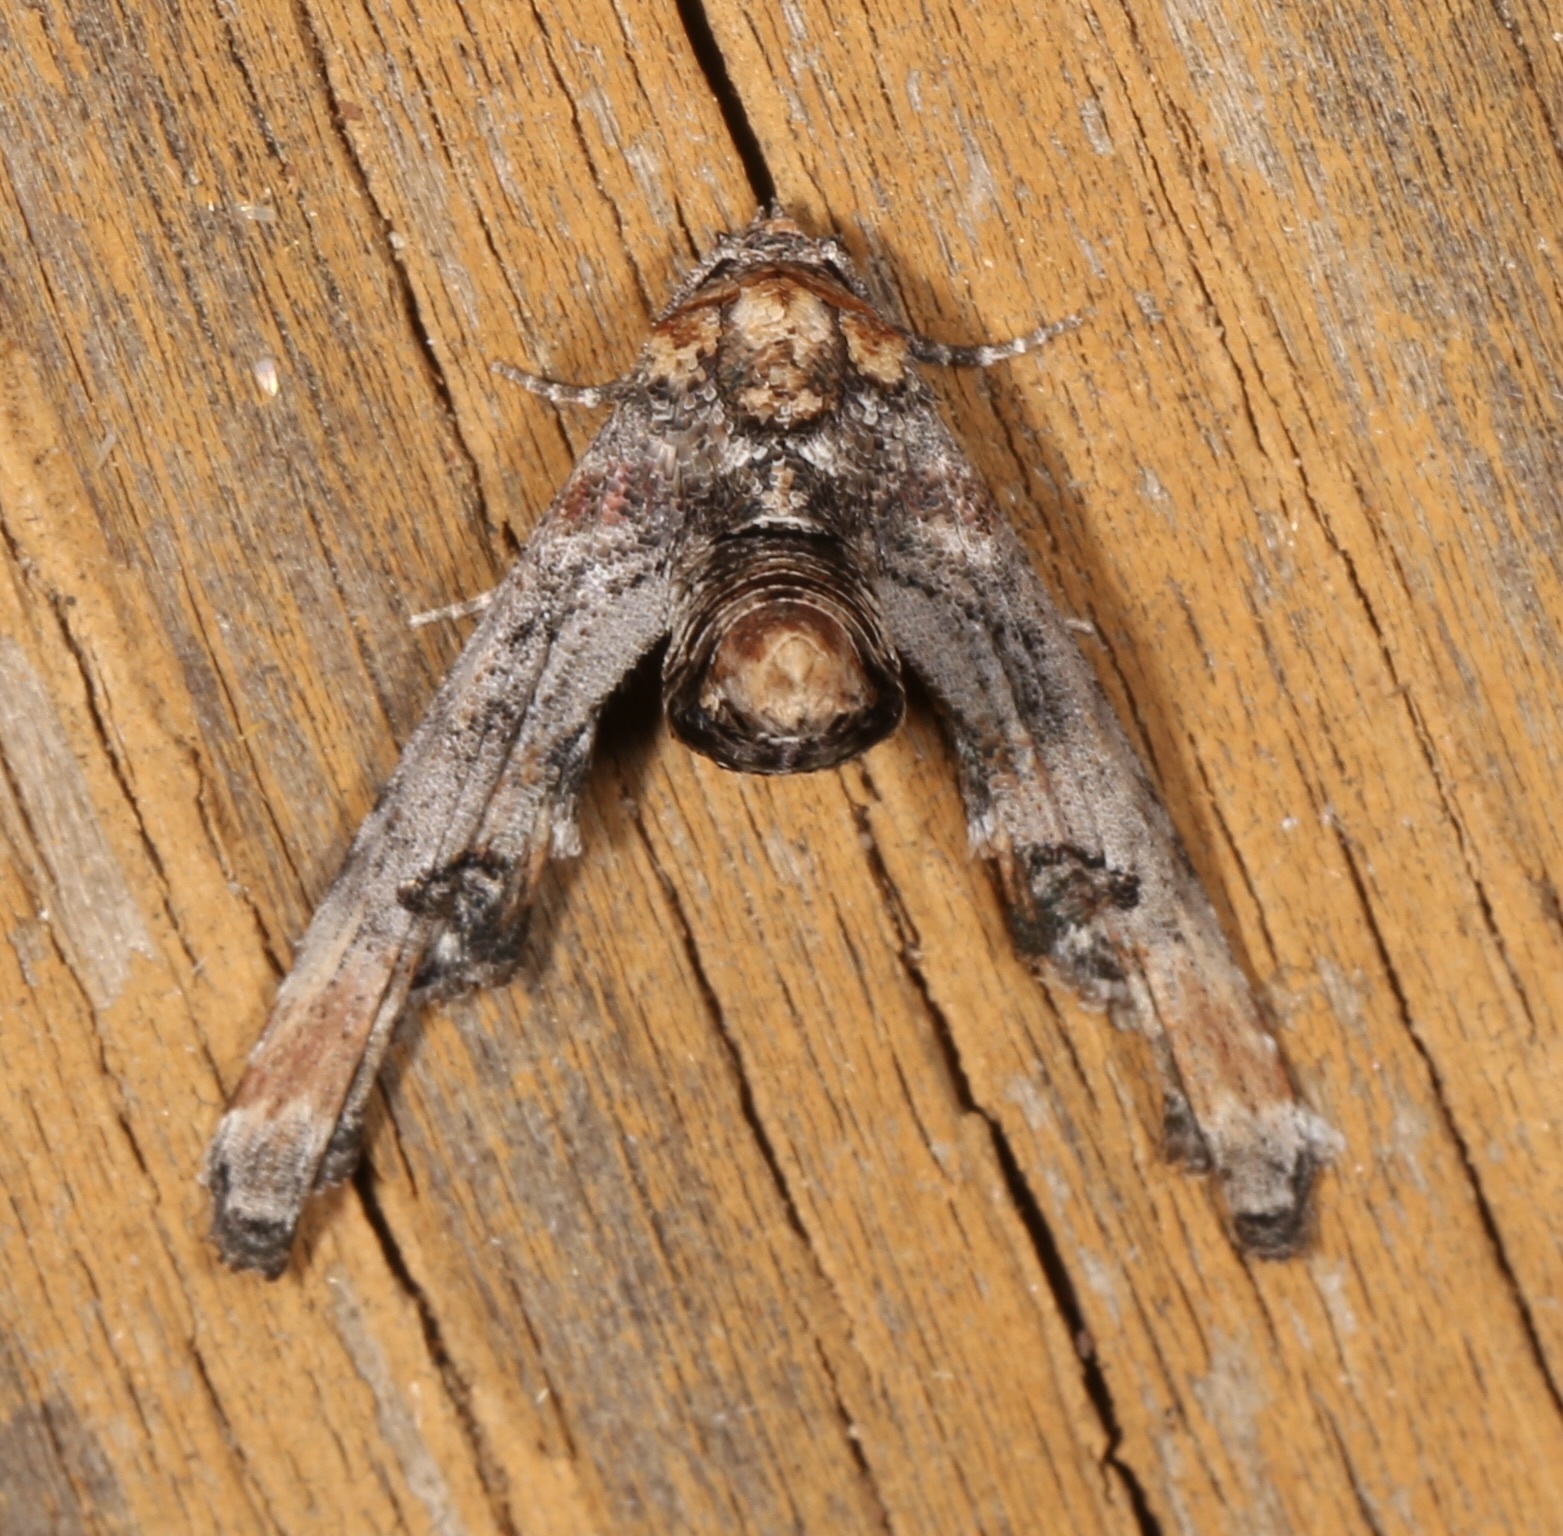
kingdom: Animalia
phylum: Arthropoda
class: Insecta
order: Lepidoptera
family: Euteliidae
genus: Marathyssa
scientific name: Marathyssa inficita
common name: Dark marathyssa moth
